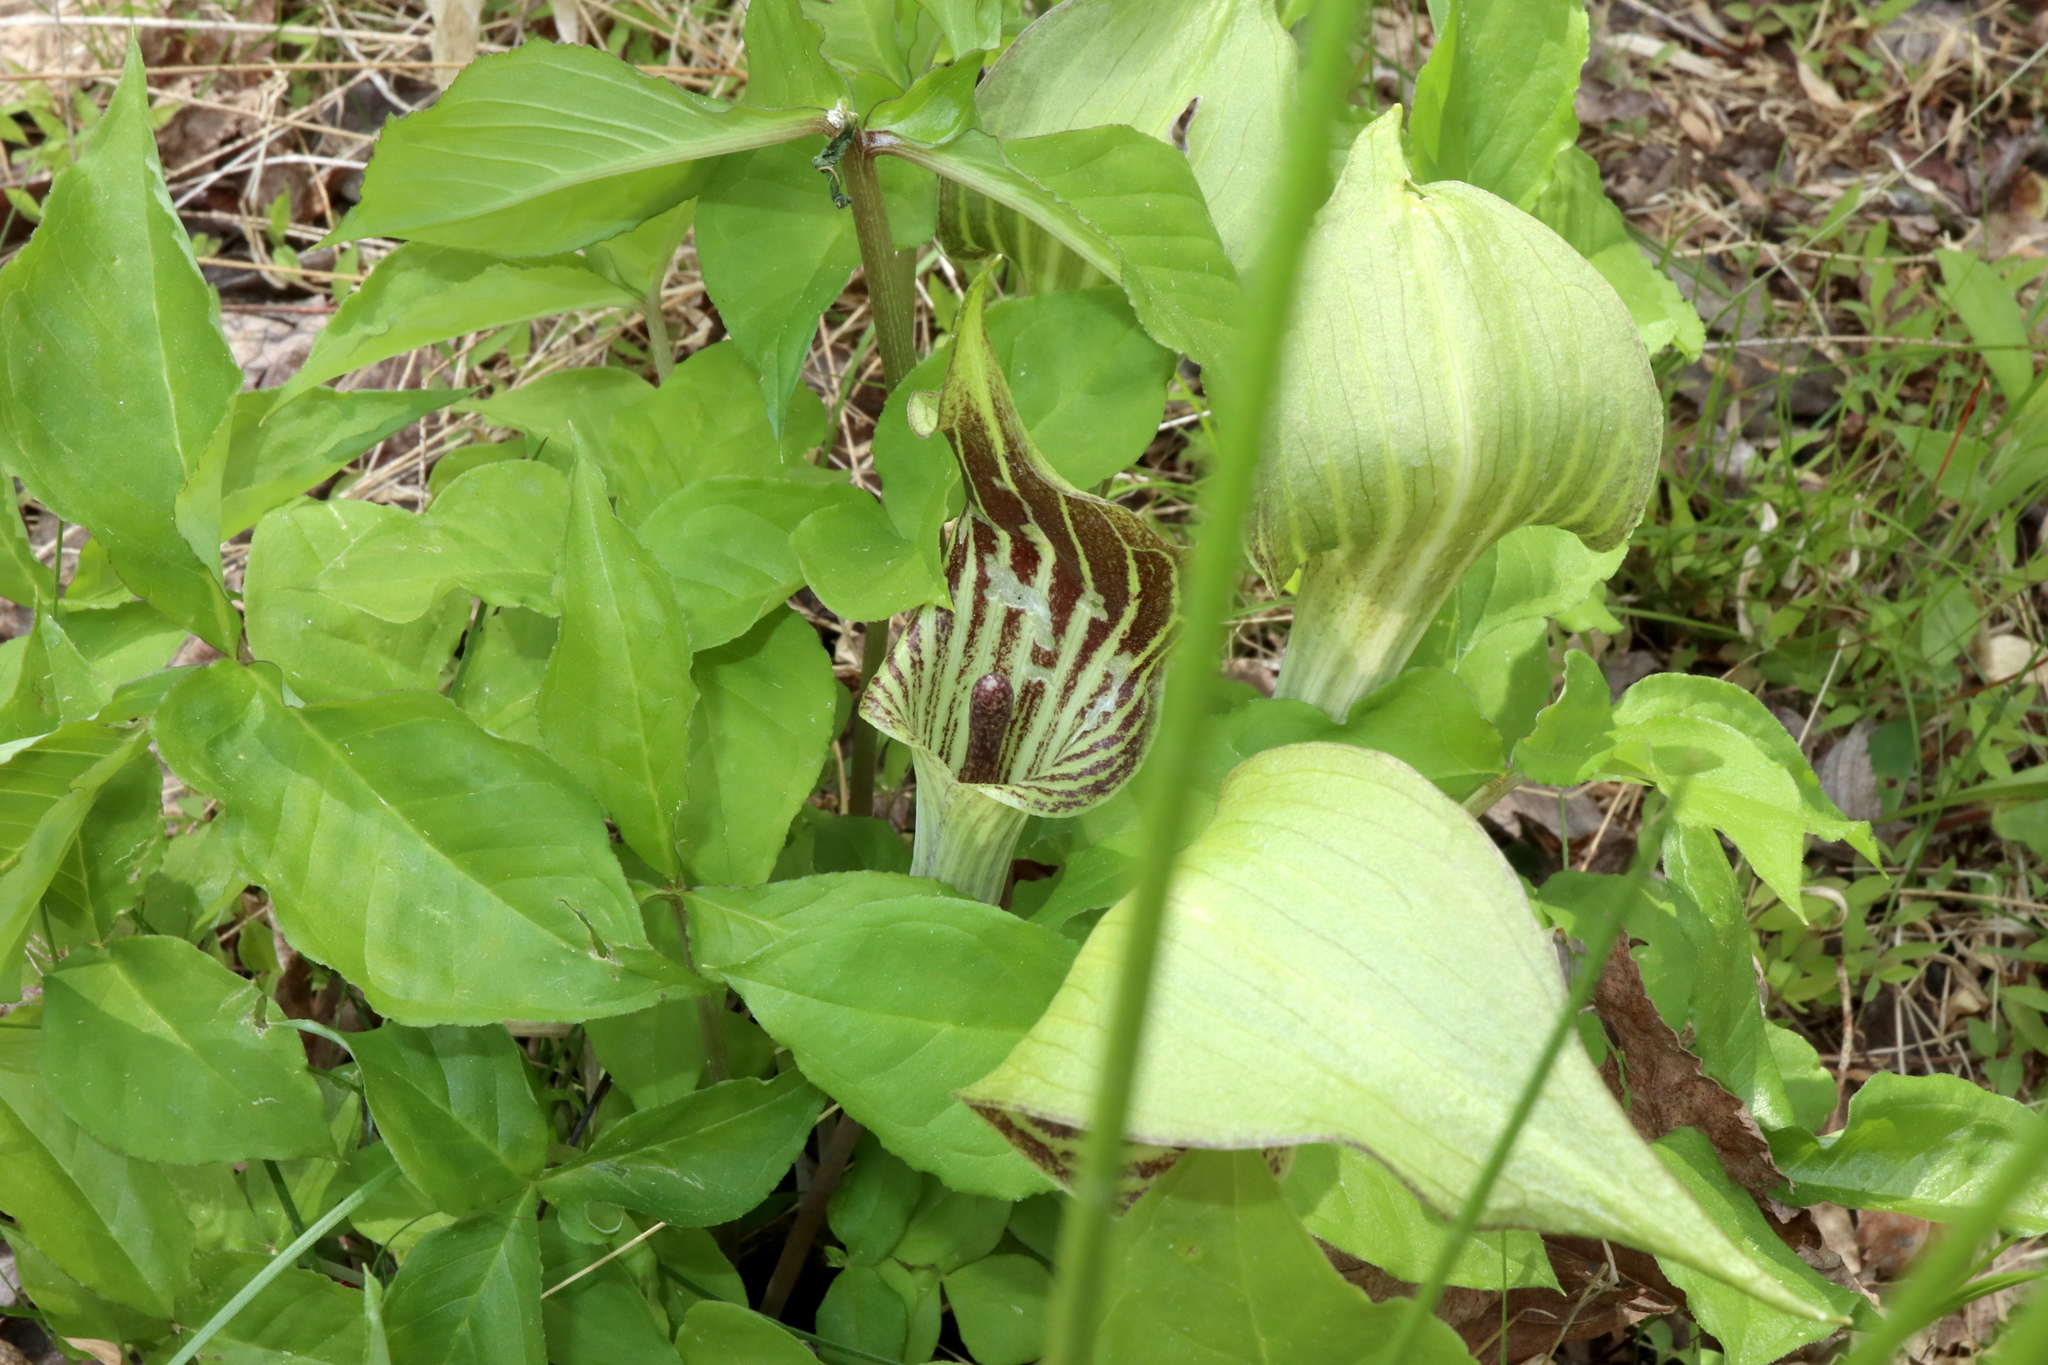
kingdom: Plantae
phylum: Tracheophyta
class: Liliopsida
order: Alismatales
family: Araceae
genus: Arisaema
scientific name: Arisaema triphyllum
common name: Jack-in-the-pulpit
